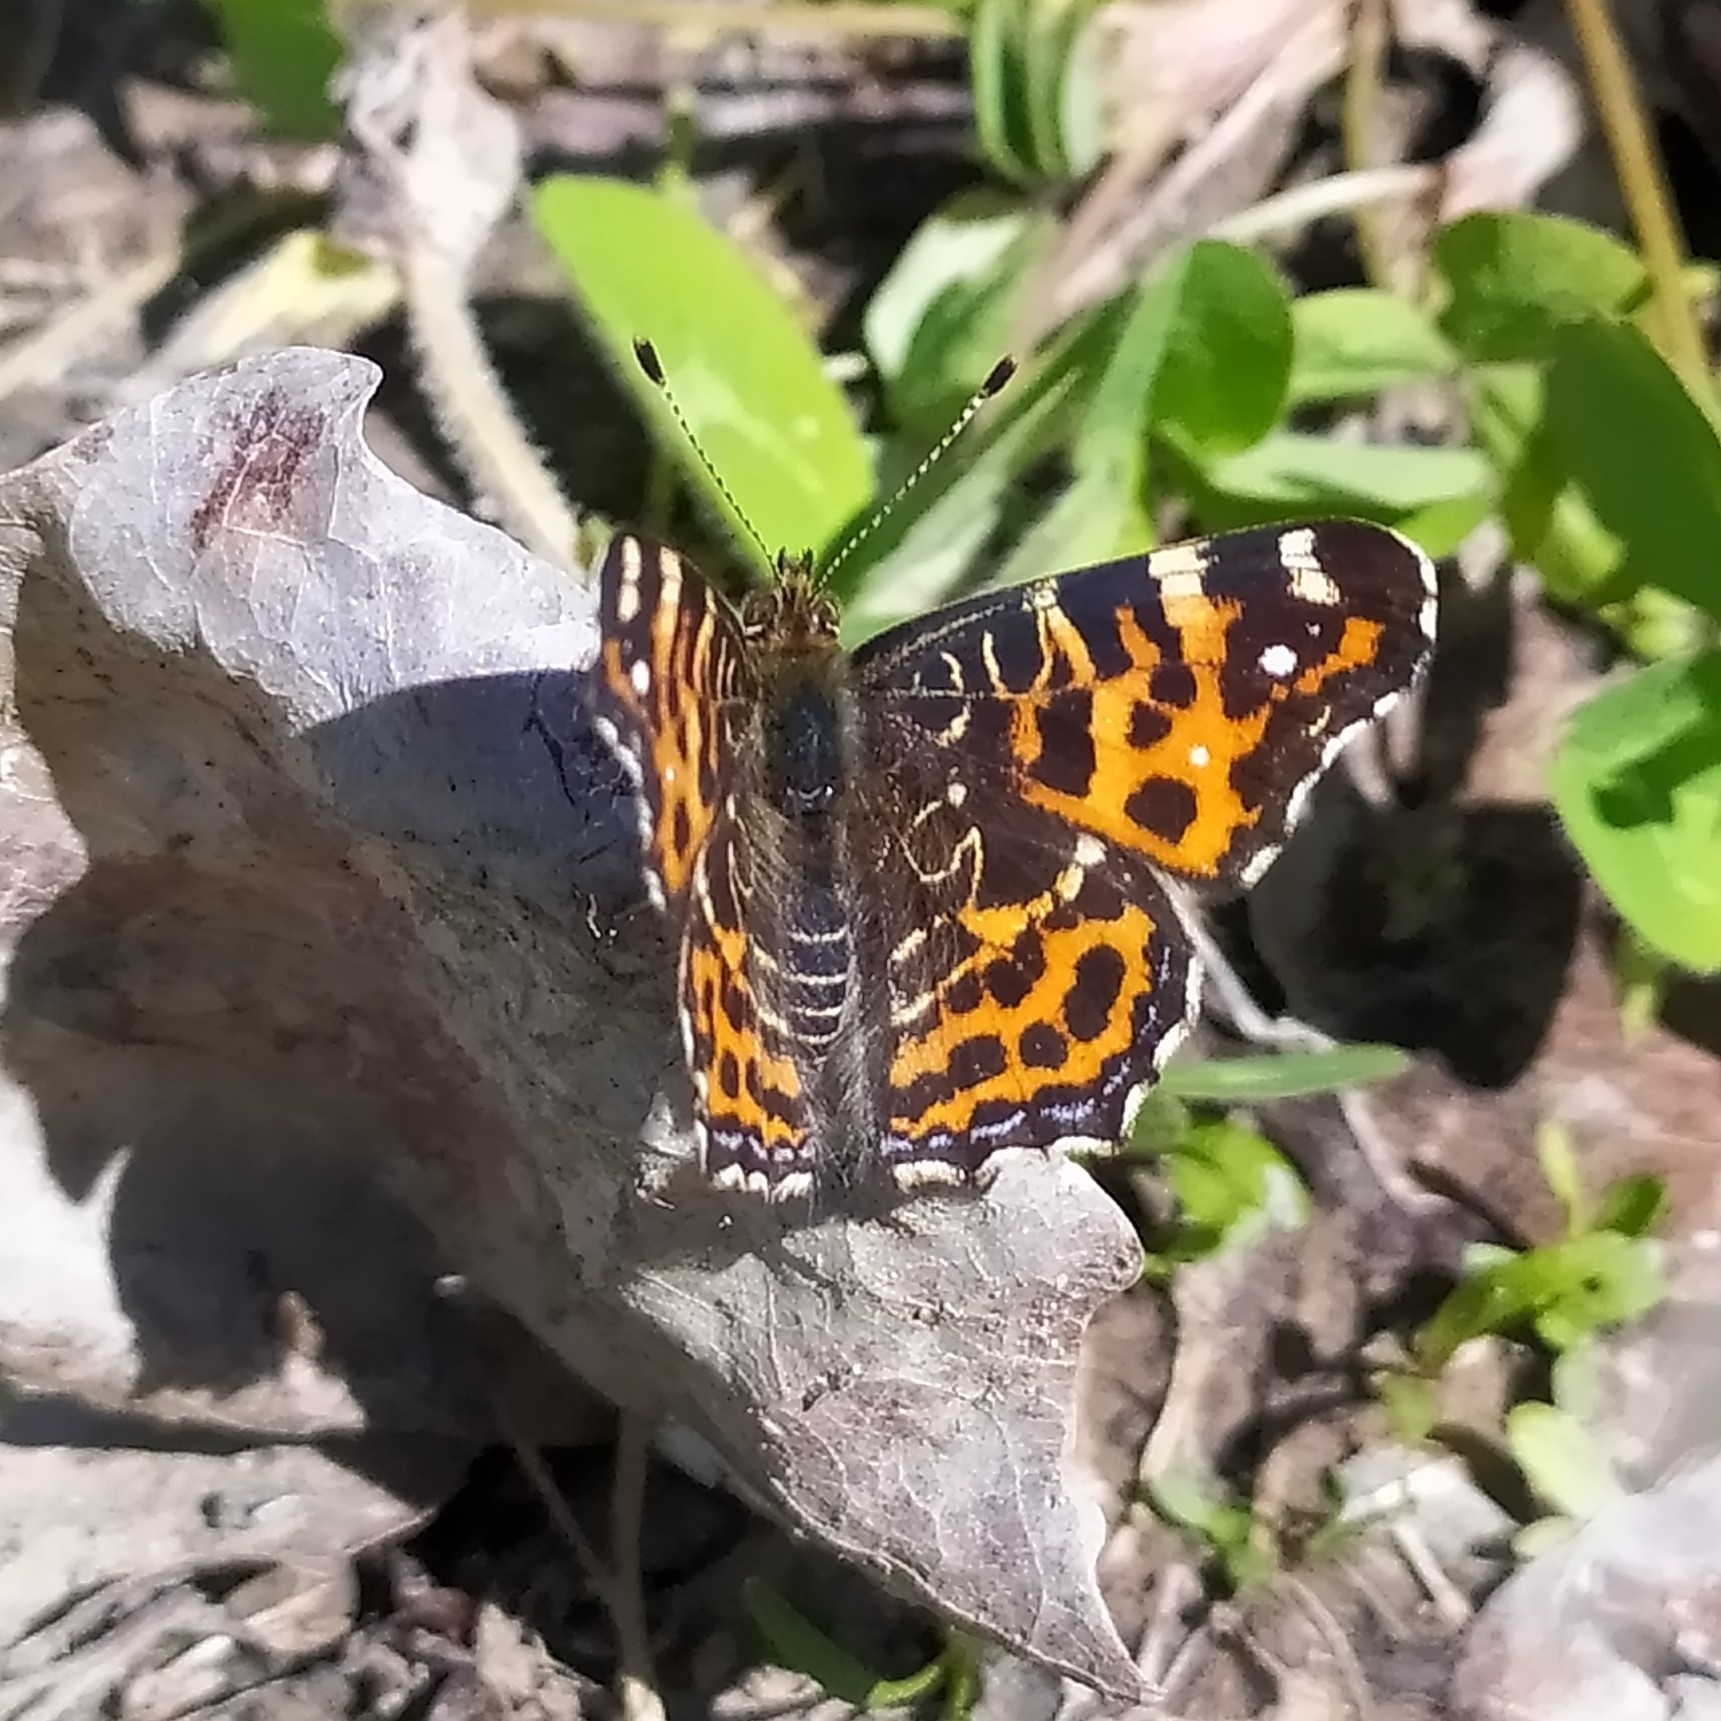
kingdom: Animalia
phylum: Arthropoda
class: Insecta
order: Lepidoptera
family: Nymphalidae
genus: Araschnia
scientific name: Araschnia levana
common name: Map butterfly
